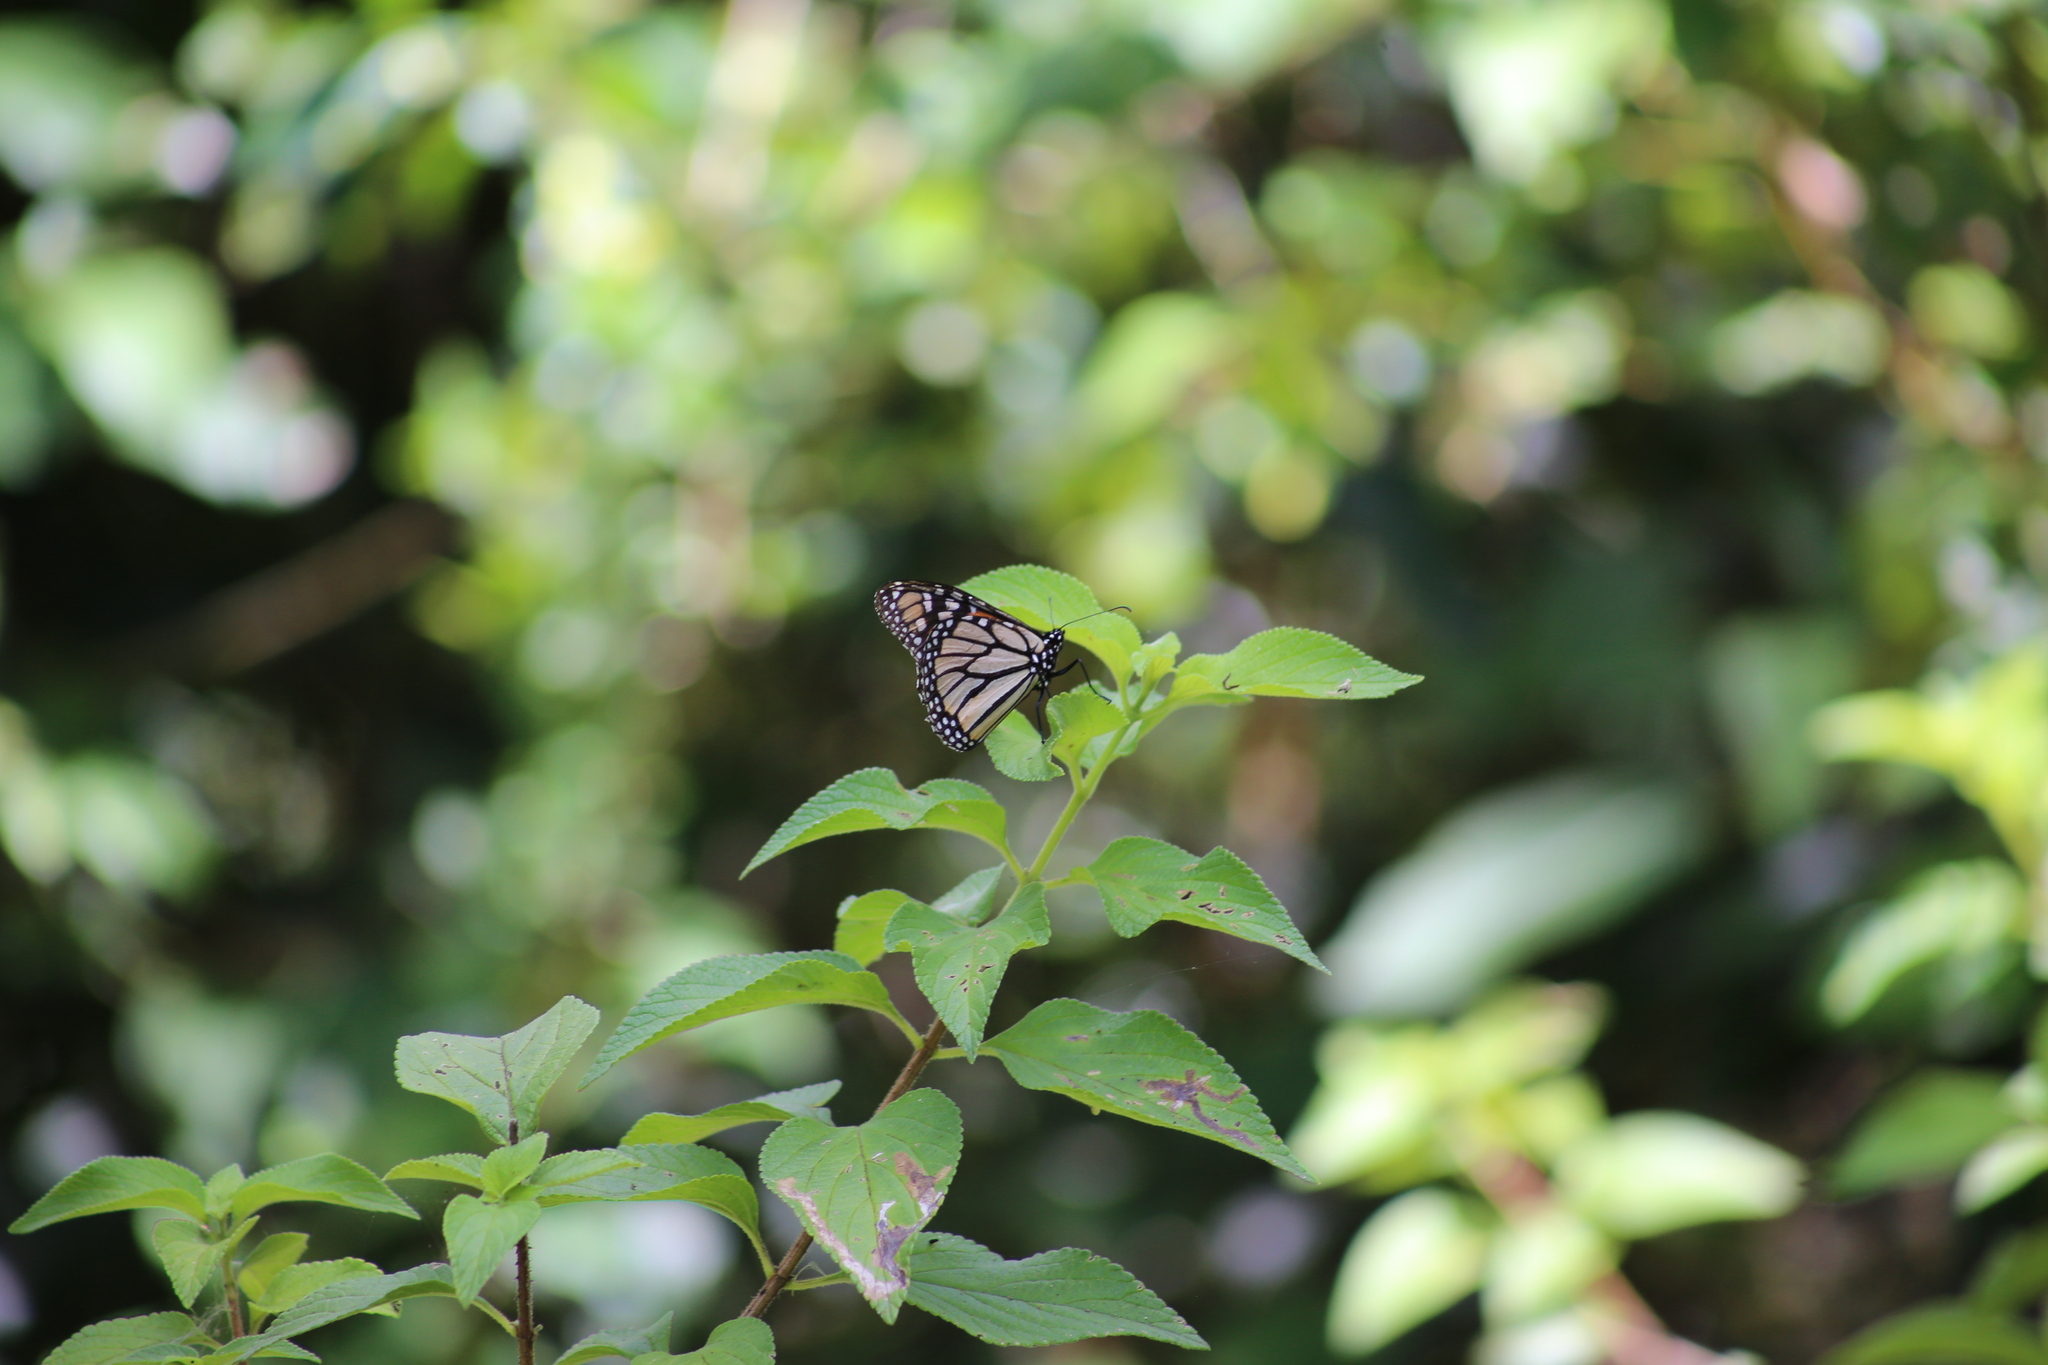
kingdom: Animalia
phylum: Arthropoda
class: Insecta
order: Lepidoptera
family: Nymphalidae
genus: Danaus
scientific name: Danaus plexippus
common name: Monarch
